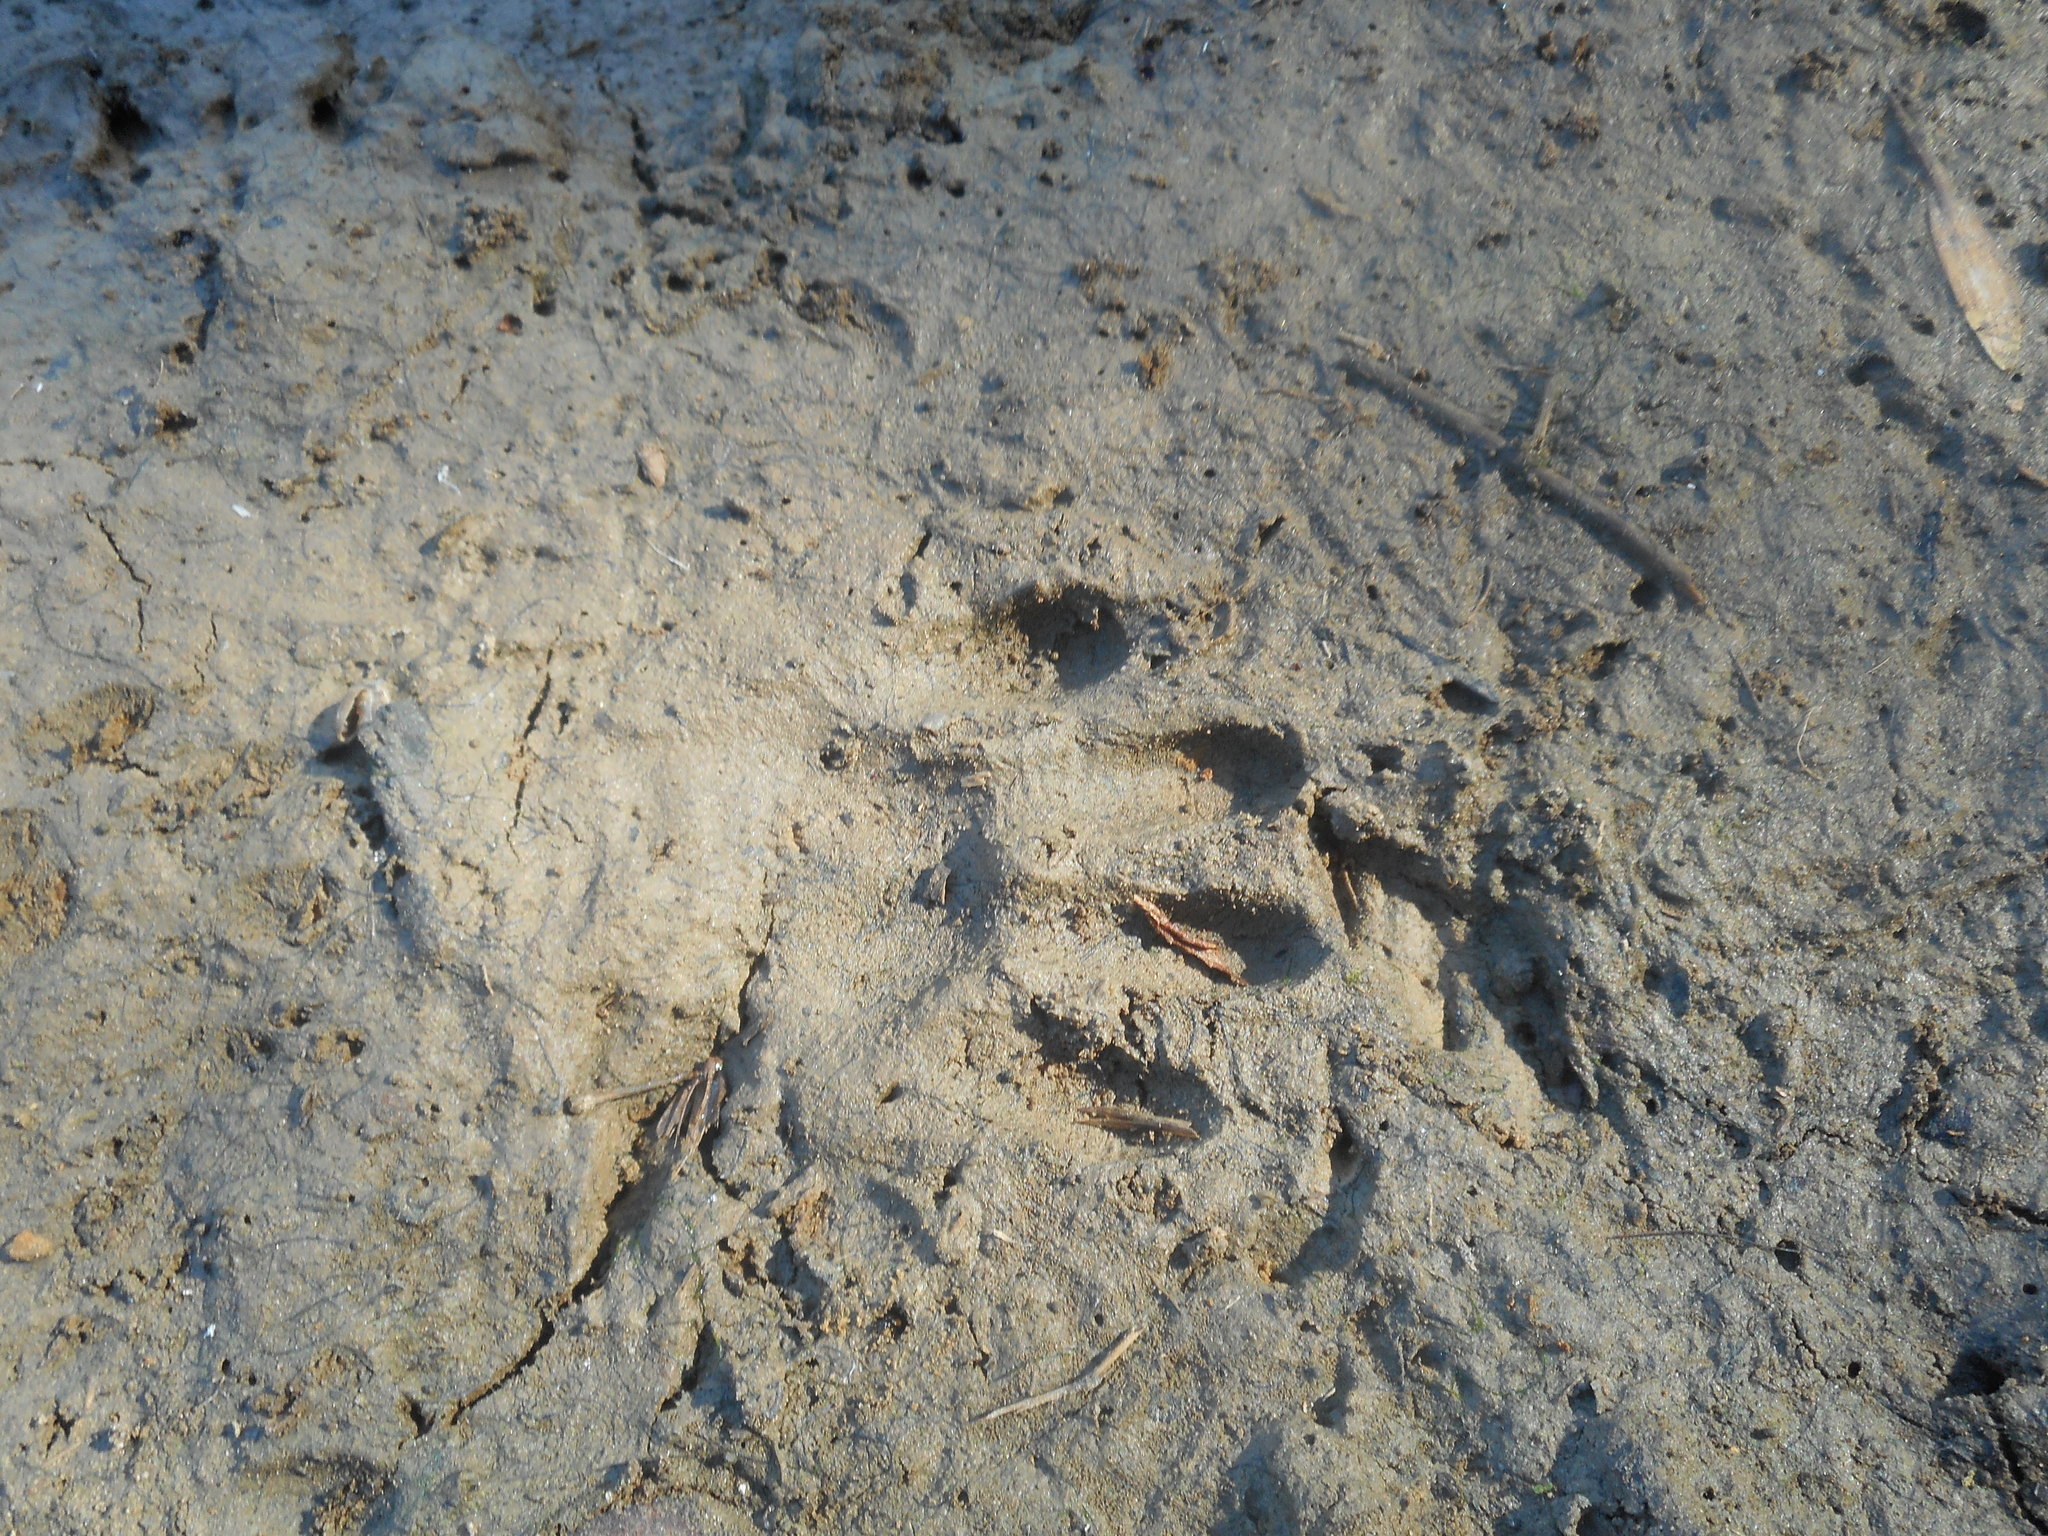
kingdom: Animalia
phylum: Chordata
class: Mammalia
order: Carnivora
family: Procyonidae
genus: Procyon
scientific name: Procyon lotor
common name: Raccoon
